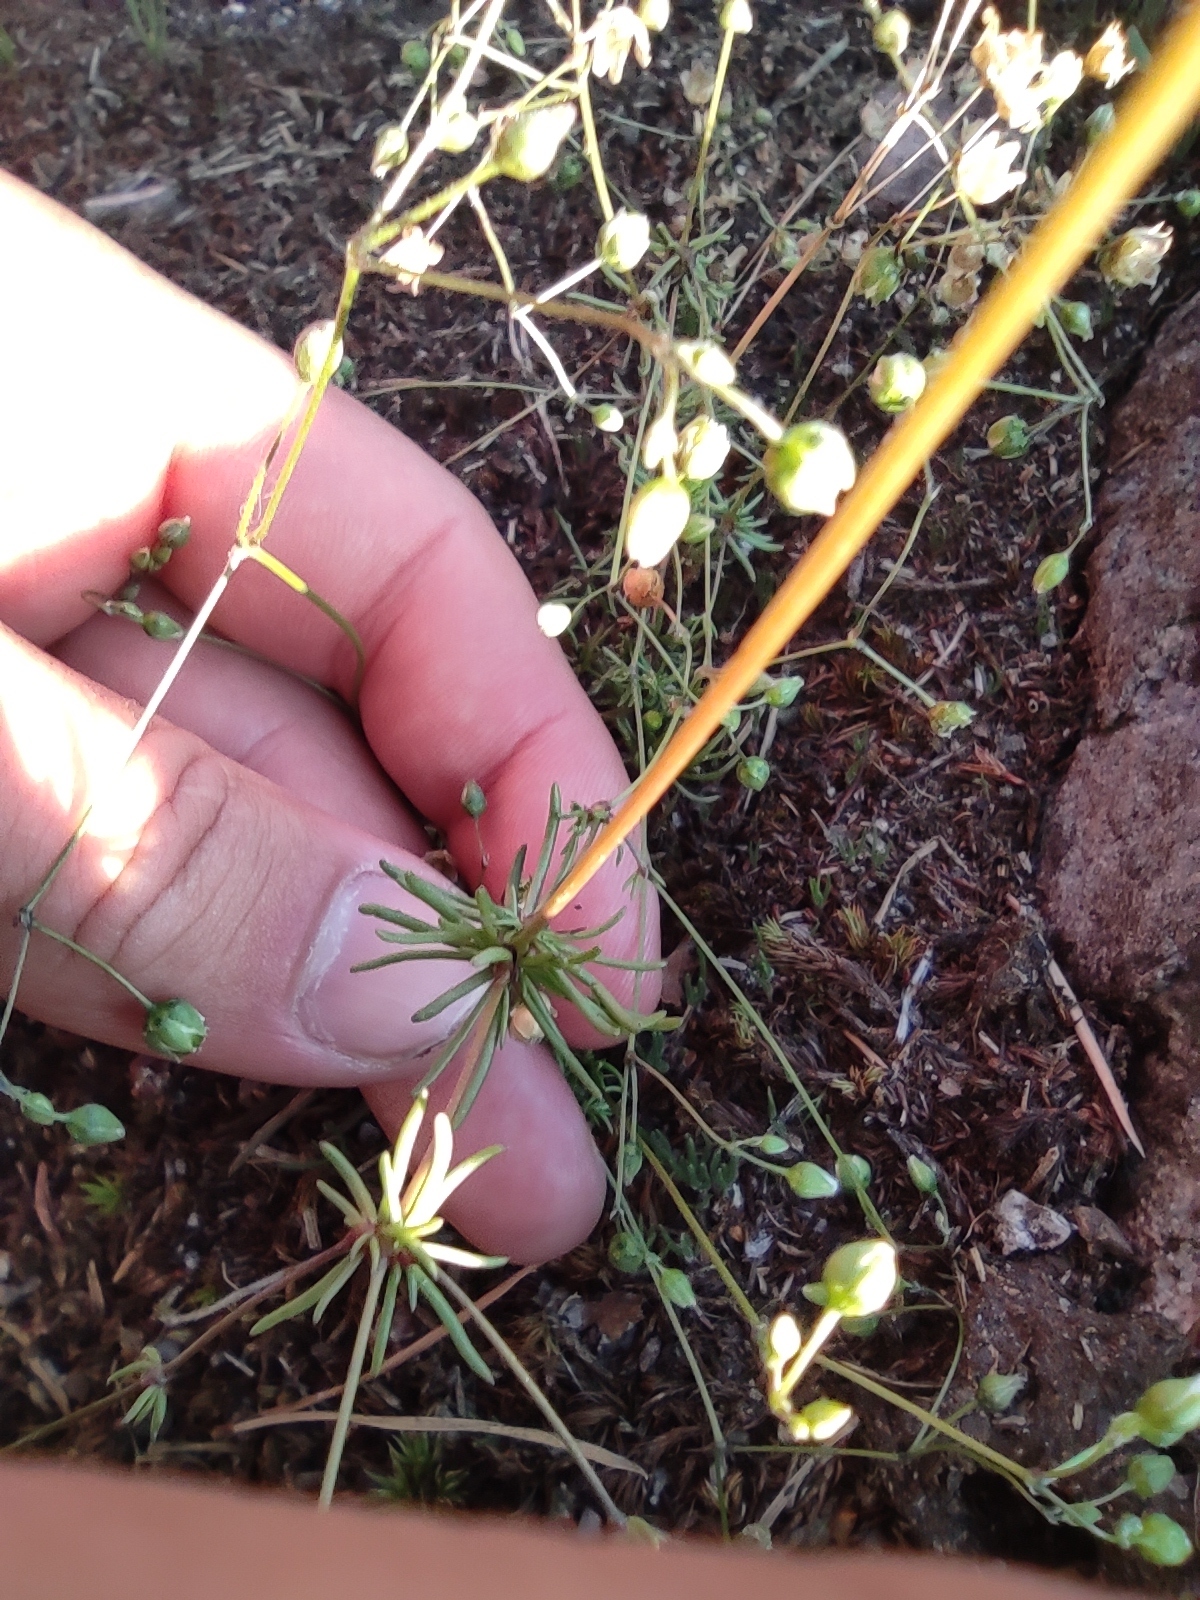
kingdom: Plantae
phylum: Tracheophyta
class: Magnoliopsida
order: Caryophyllales
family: Caryophyllaceae
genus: Spergula
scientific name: Spergula morisonii
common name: Pearlwort spurrey
